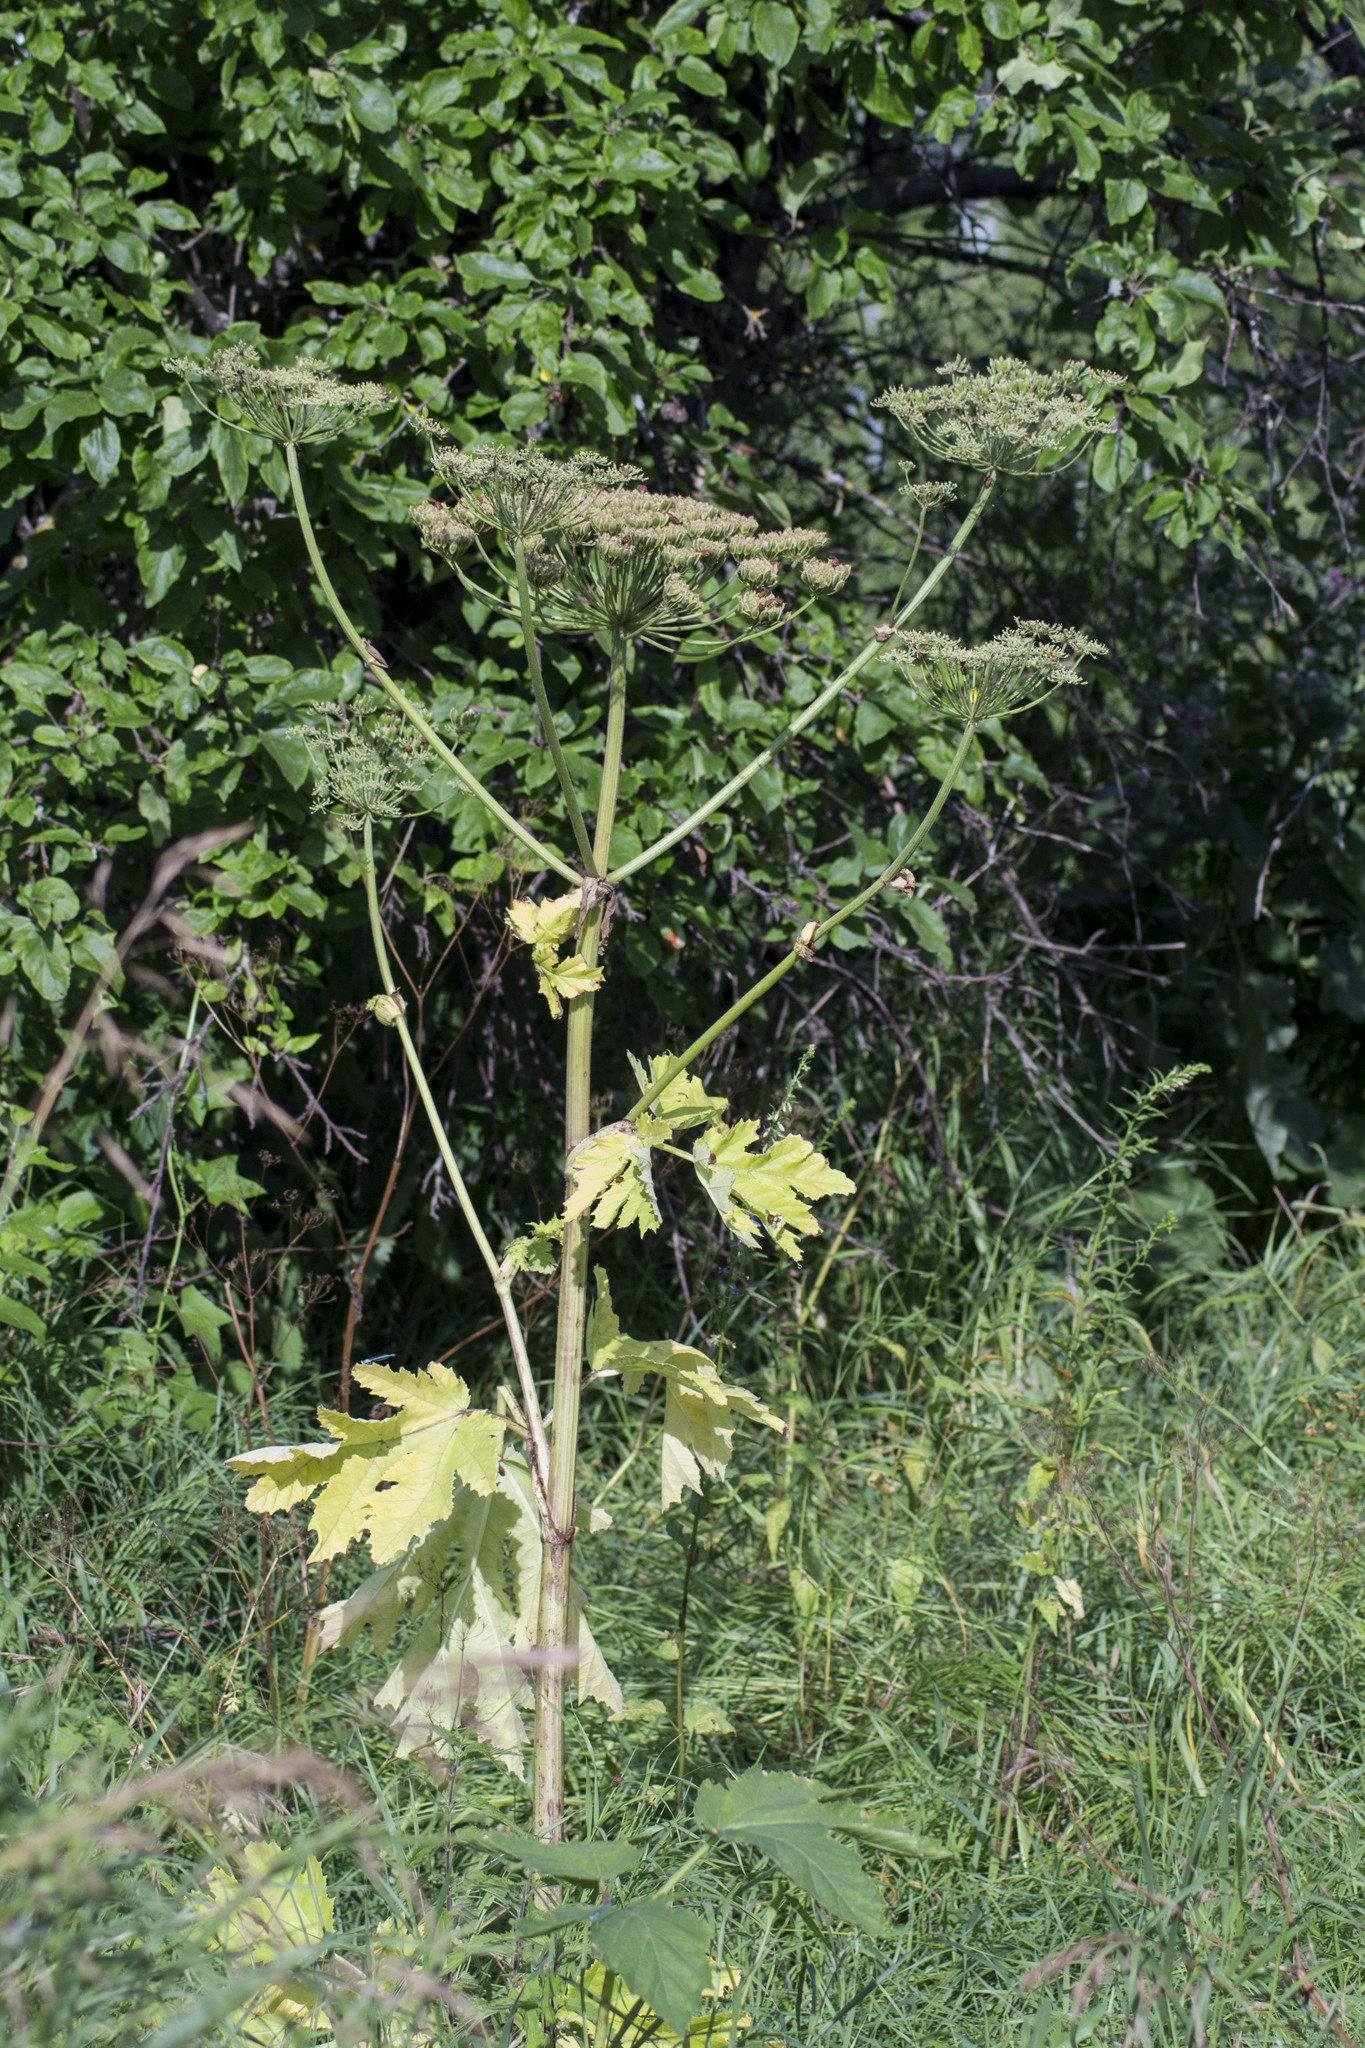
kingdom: Plantae
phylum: Tracheophyta
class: Magnoliopsida
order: Apiales
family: Apiaceae
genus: Heracleum
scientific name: Heracleum sosnowskyi
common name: Sosnowsky's hogweed
